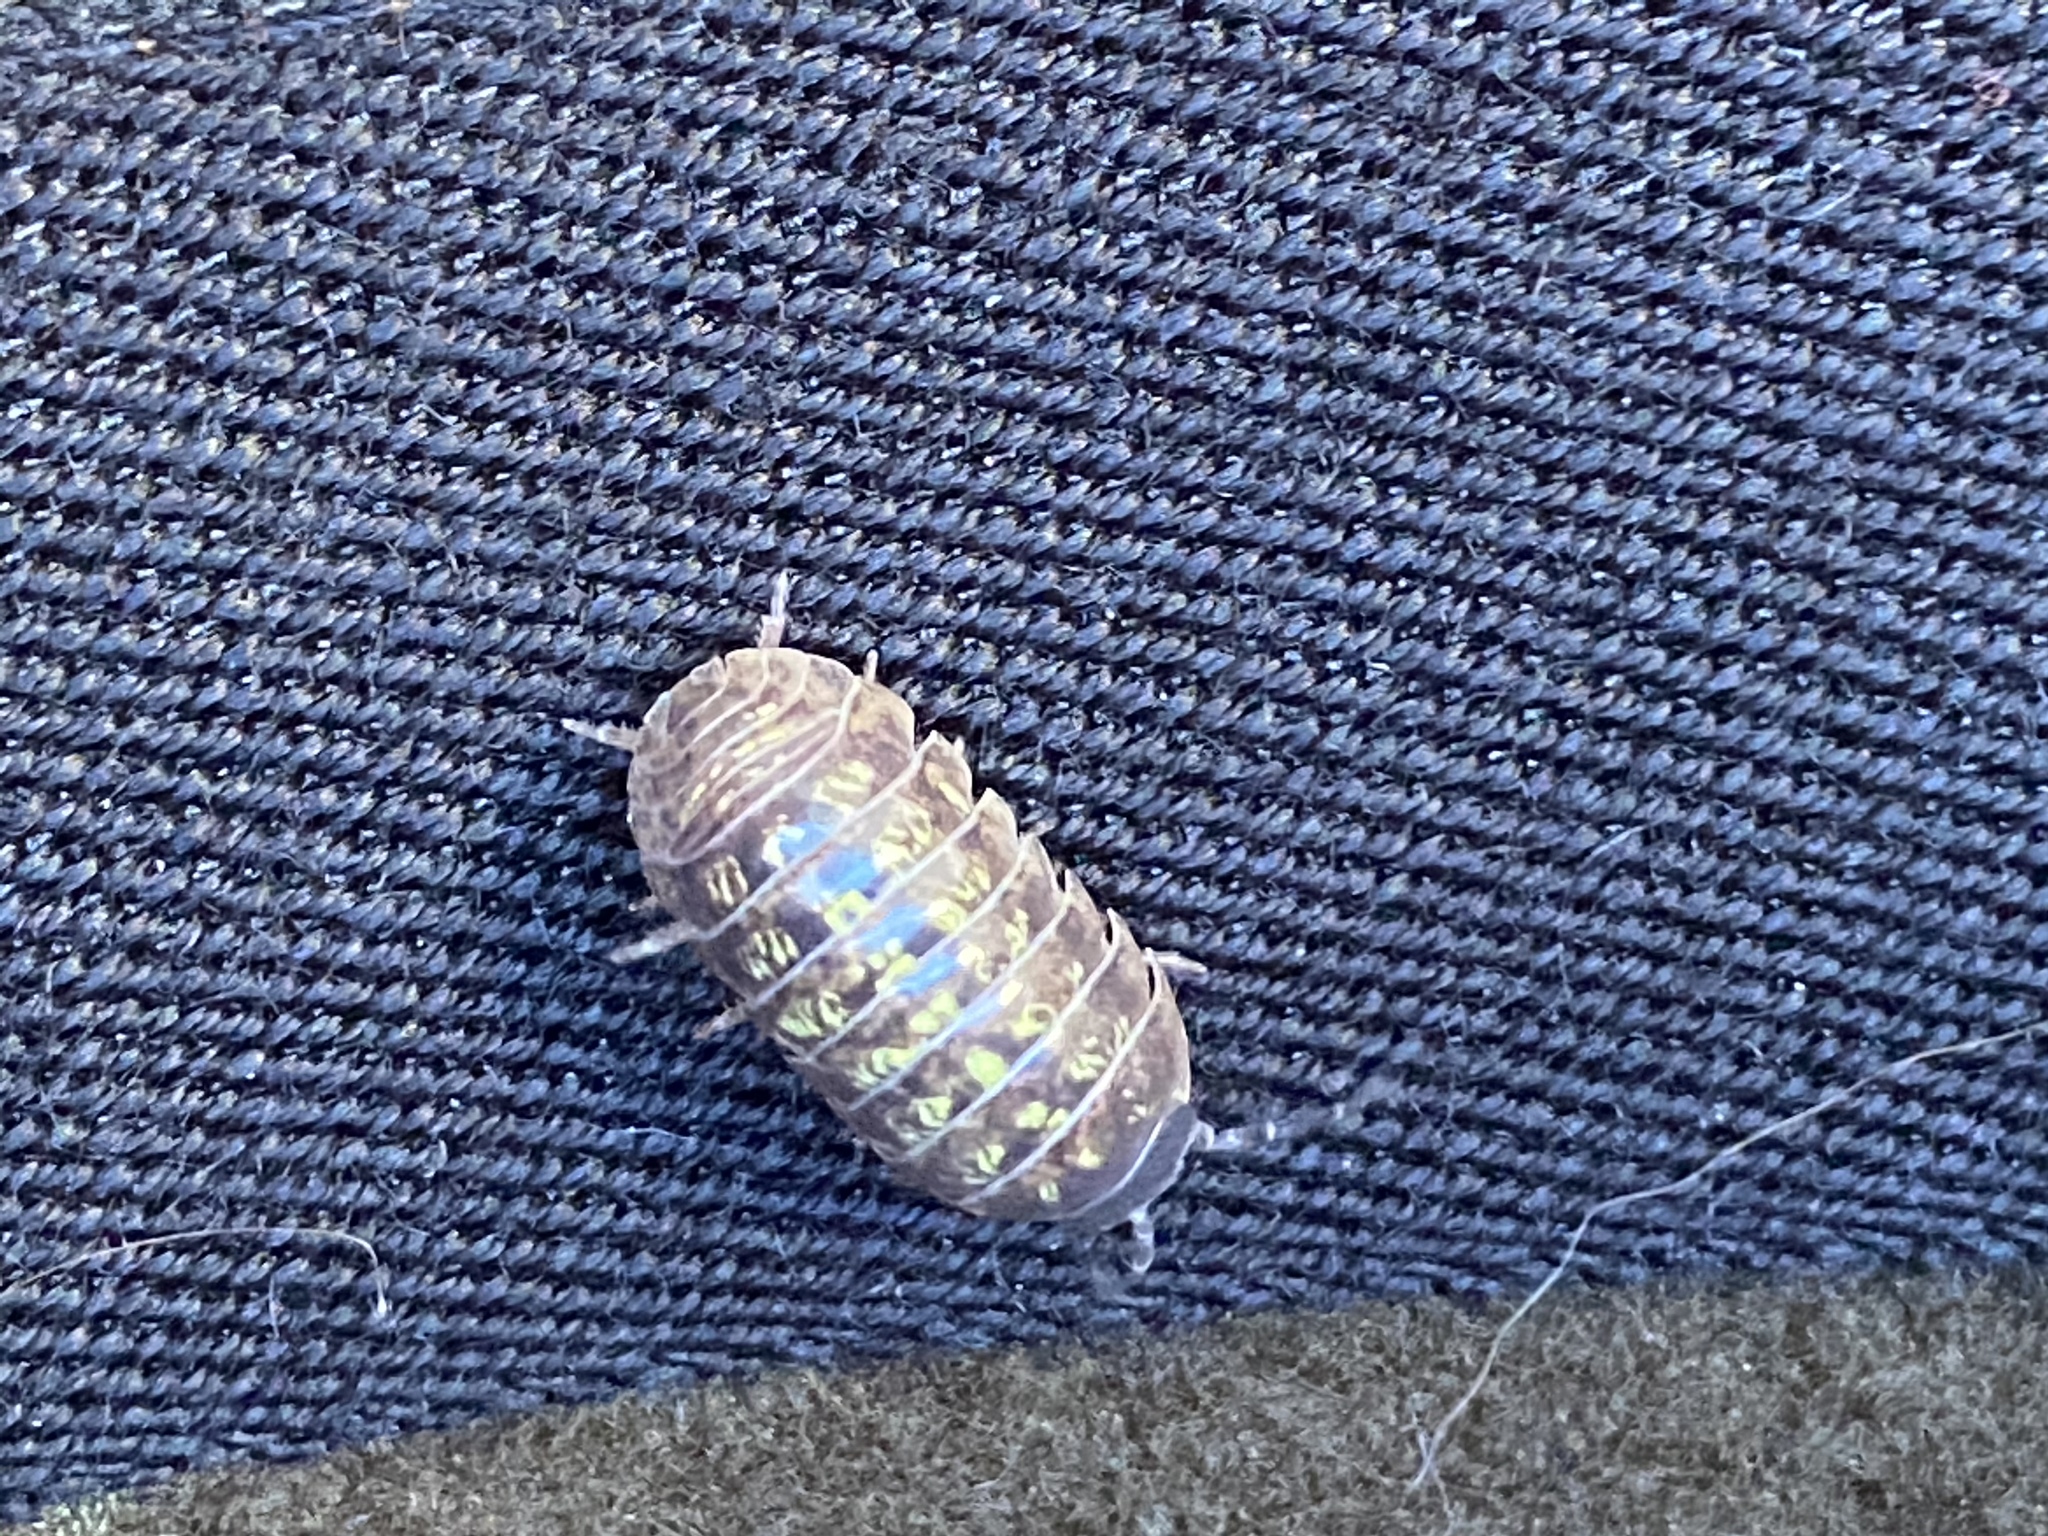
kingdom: Animalia
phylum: Arthropoda
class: Malacostraca
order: Isopoda
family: Armadillidiidae
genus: Armadillidium
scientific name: Armadillidium vulgare
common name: Common pill woodlouse
